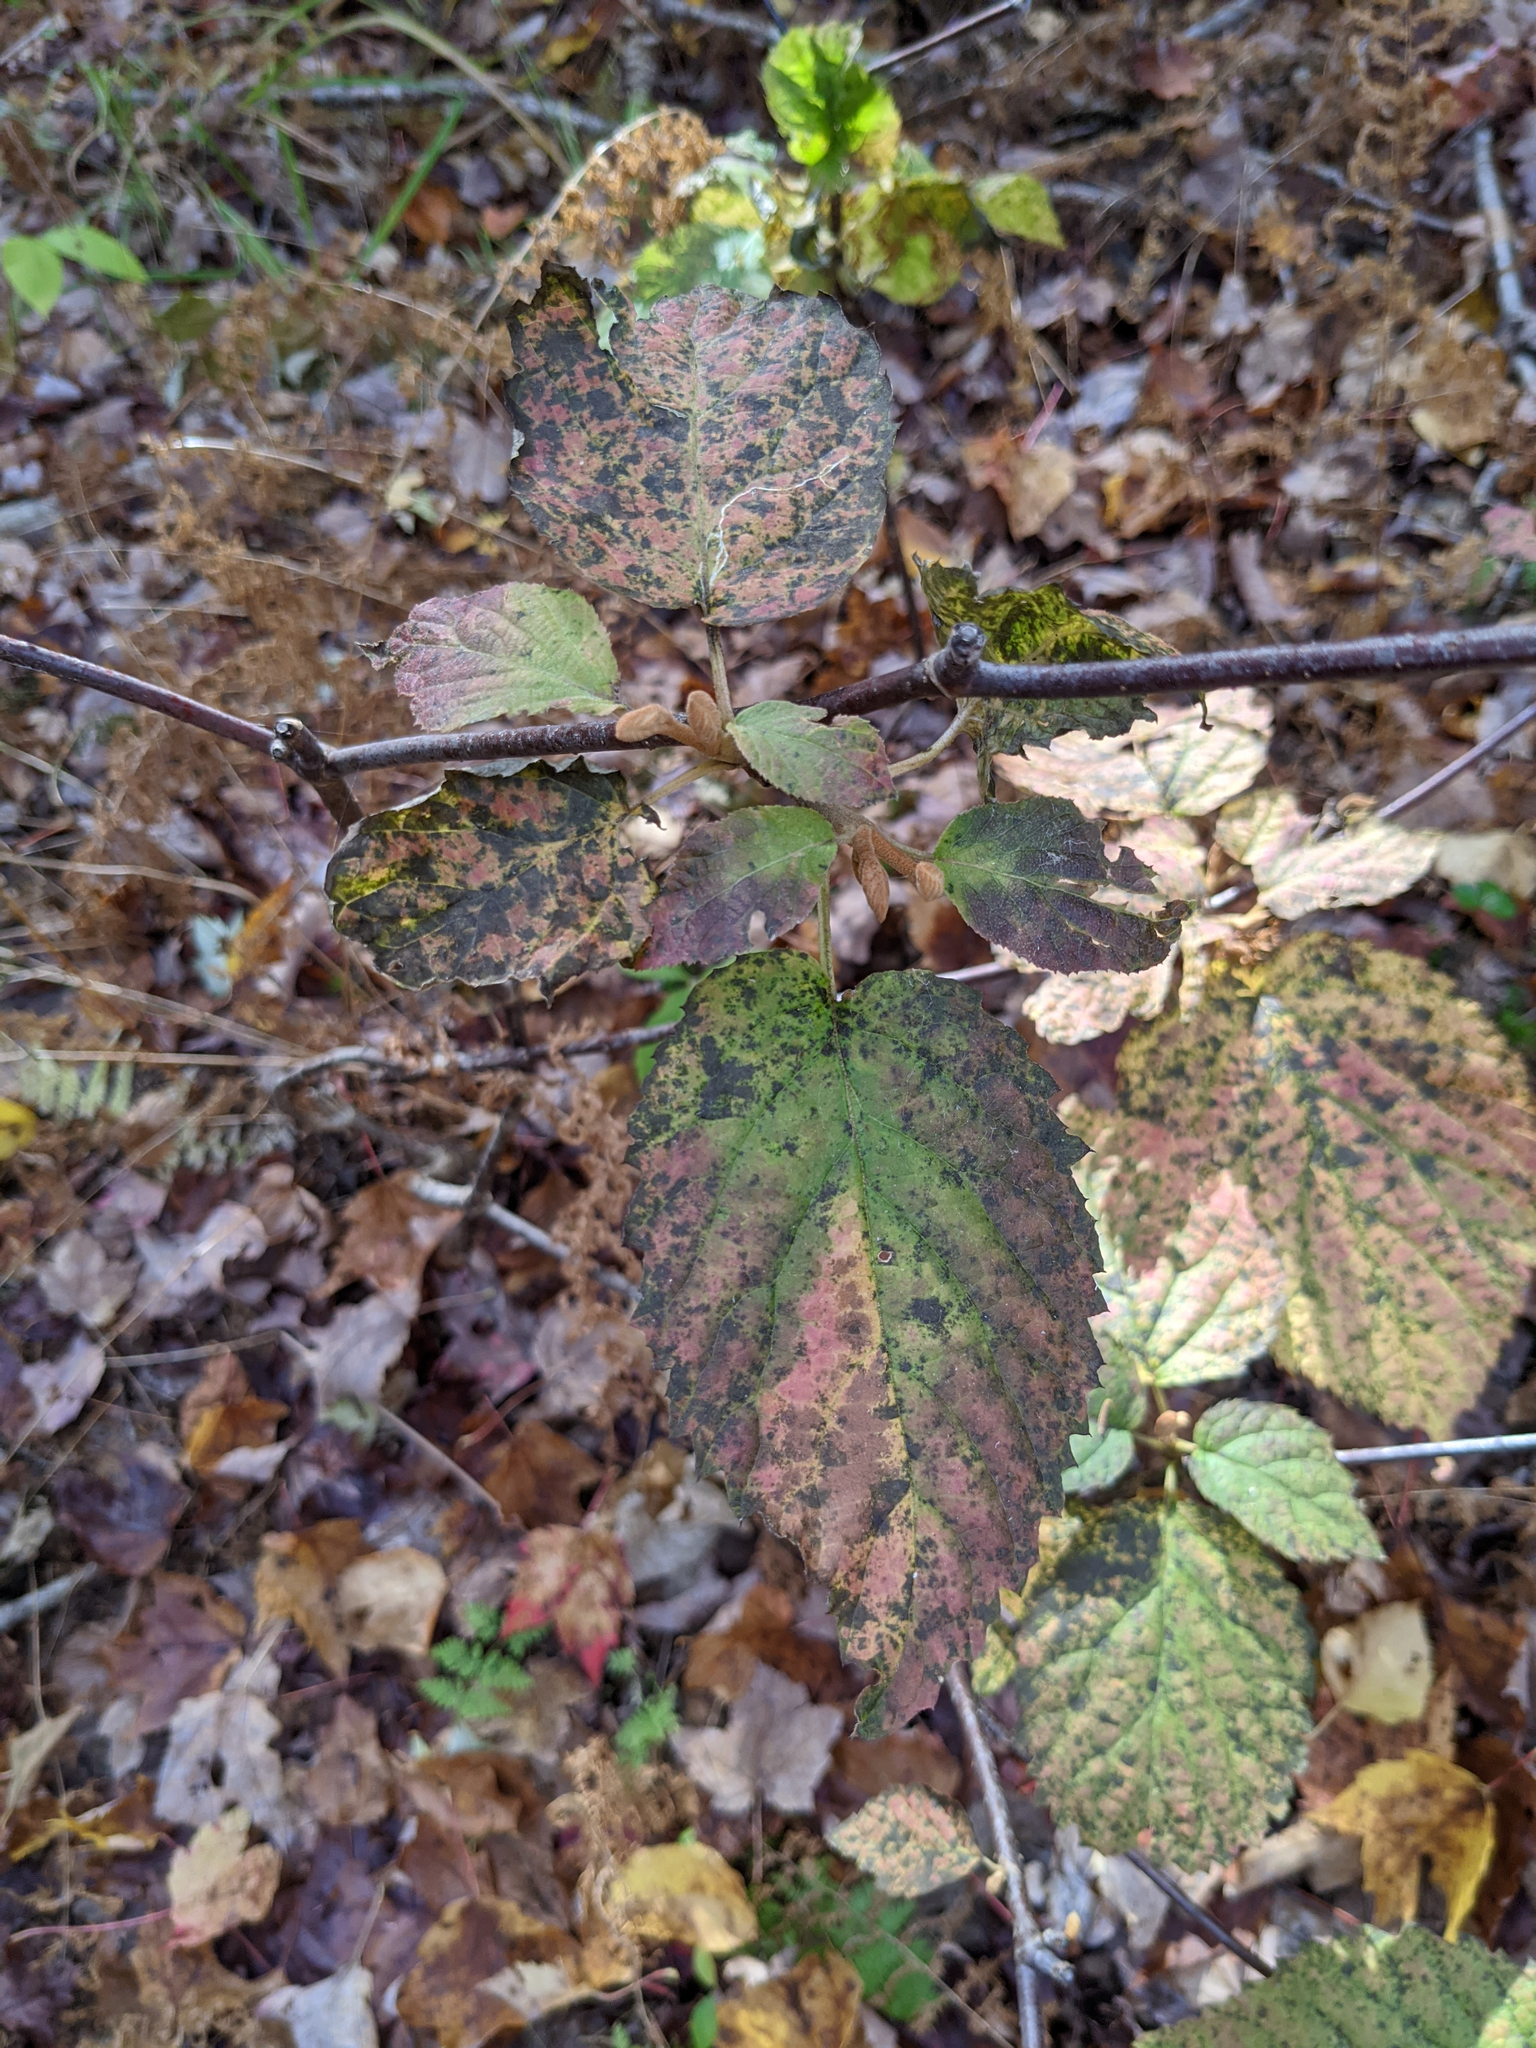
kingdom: Plantae
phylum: Tracheophyta
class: Magnoliopsida
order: Dipsacales
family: Viburnaceae
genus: Viburnum
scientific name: Viburnum lantanoides
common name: Hobblebush
